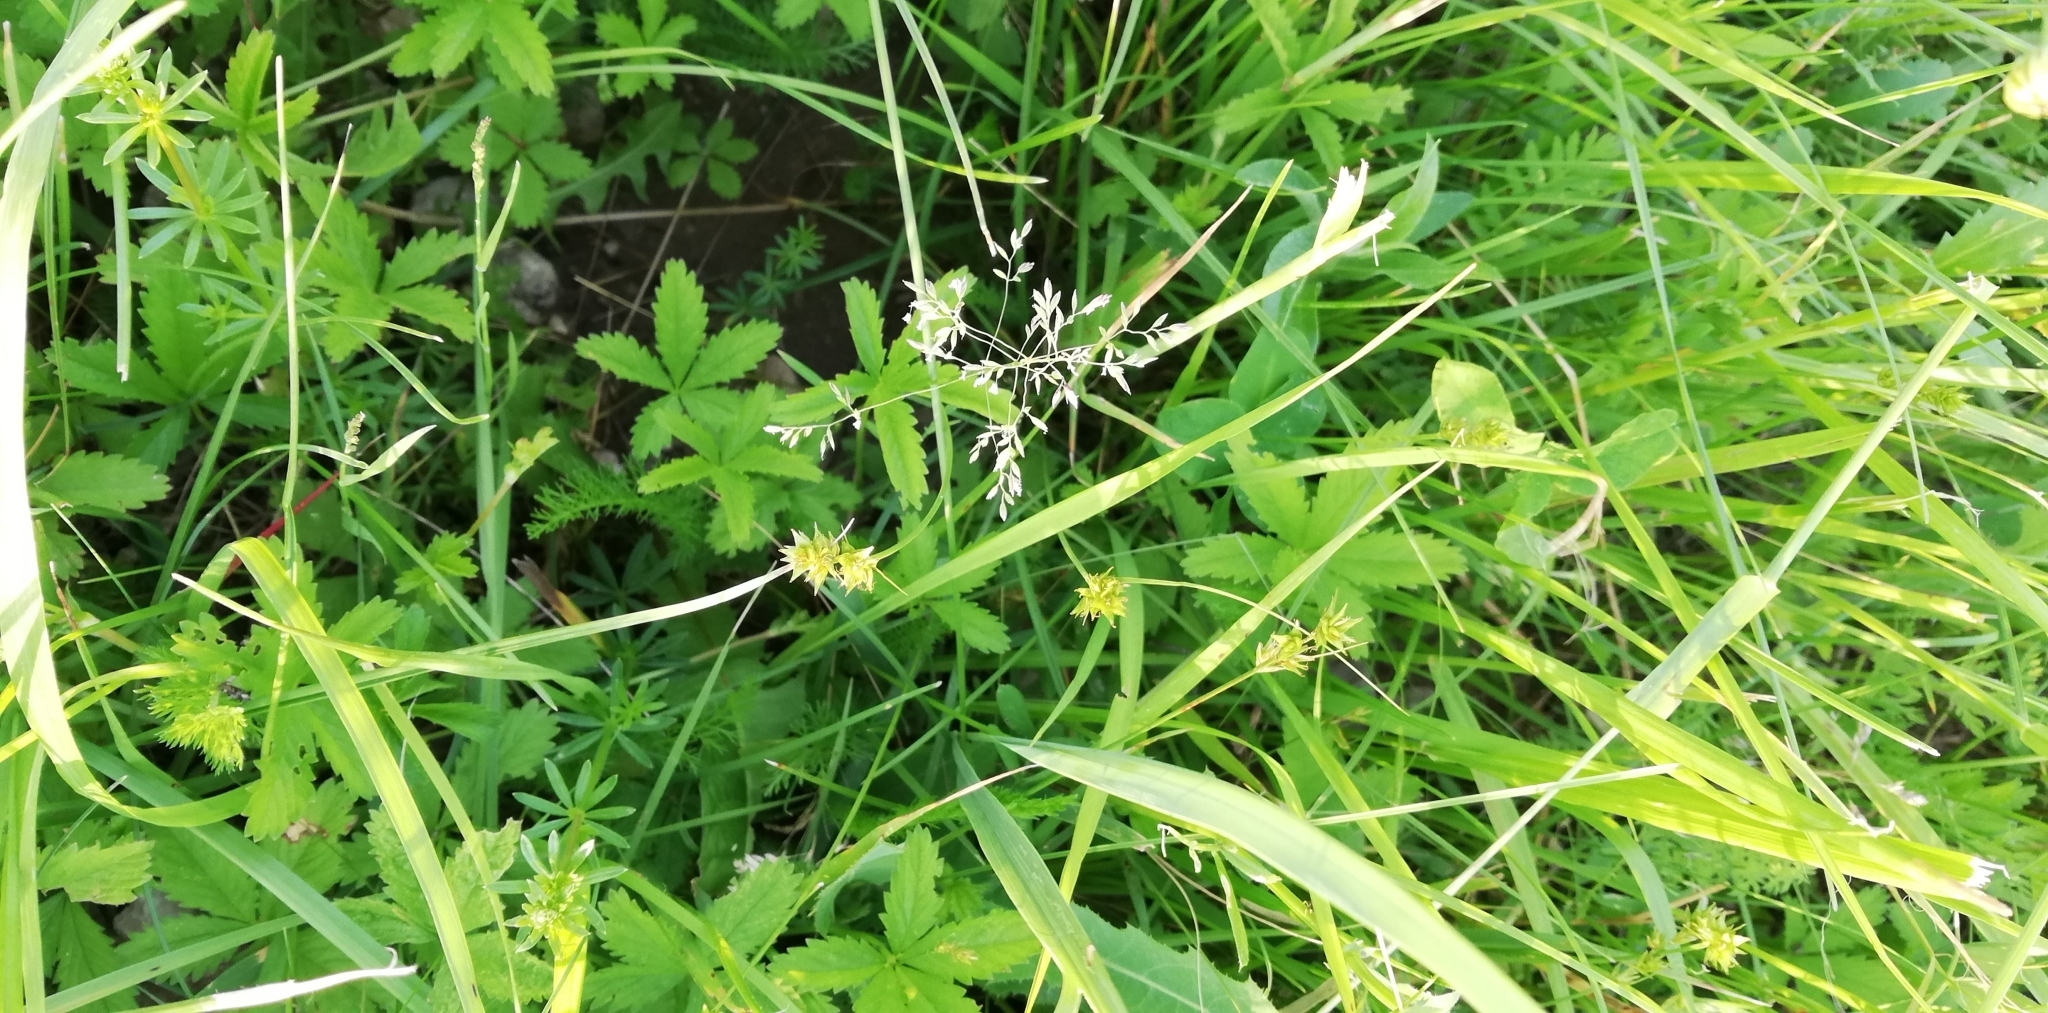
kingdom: Plantae
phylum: Tracheophyta
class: Liliopsida
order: Poales
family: Cyperaceae
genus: Carex
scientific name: Carex spicata
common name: Spiked sedge
